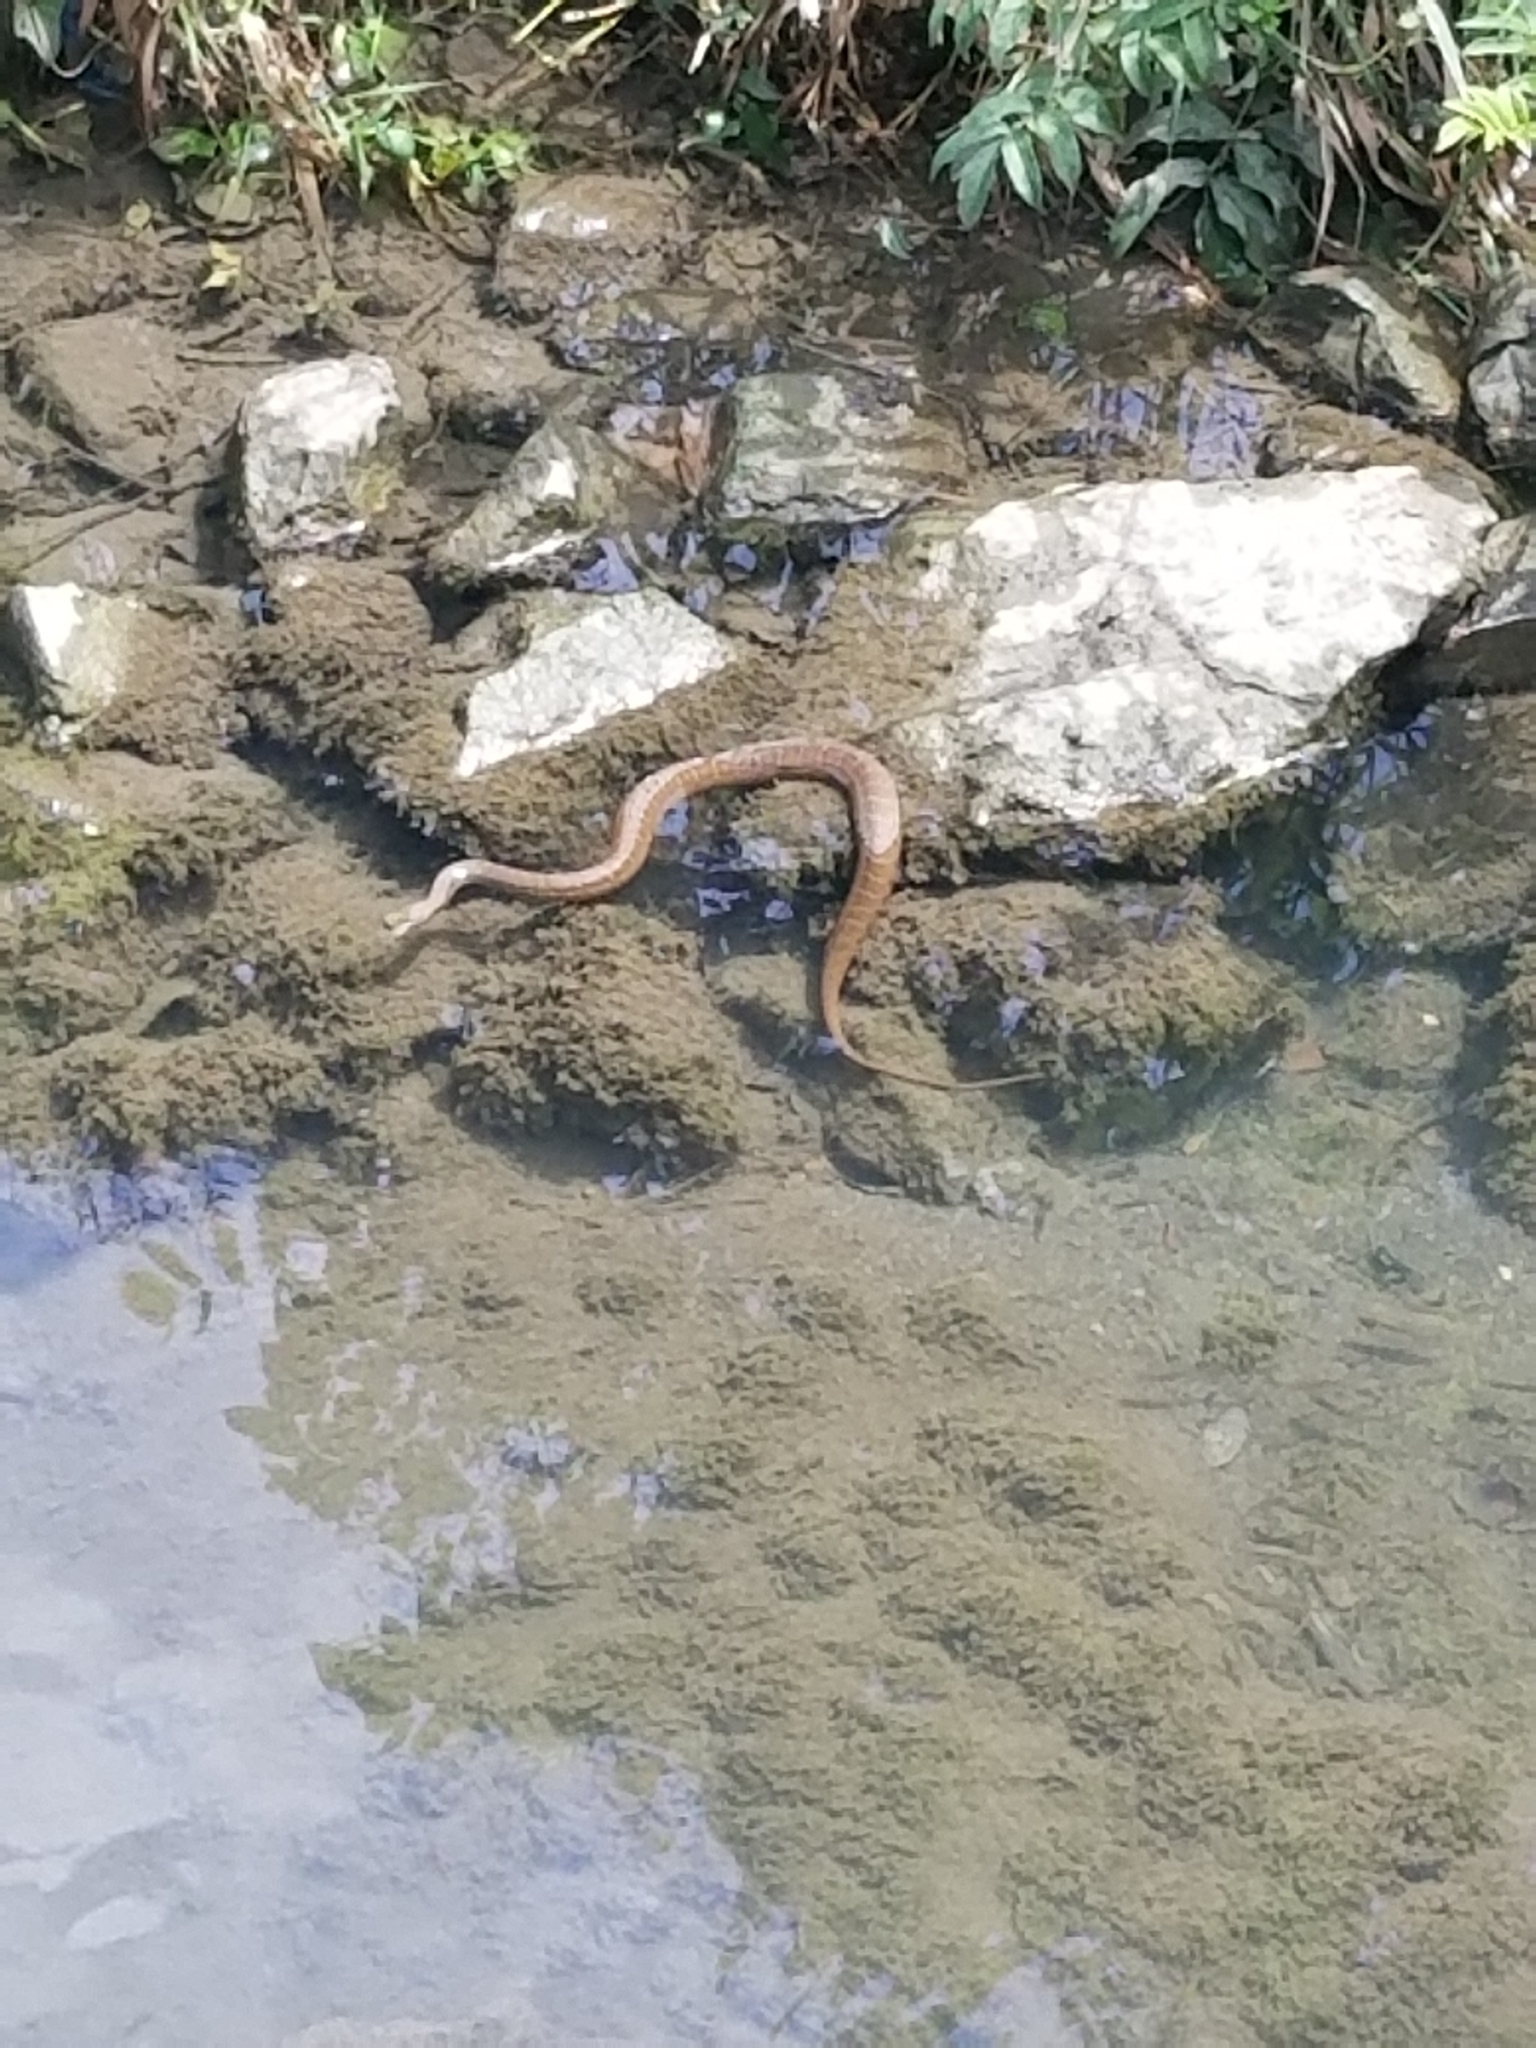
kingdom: Animalia
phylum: Chordata
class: Squamata
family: Colubridae
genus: Nerodia
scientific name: Nerodia sipedon
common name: Northern water snake
